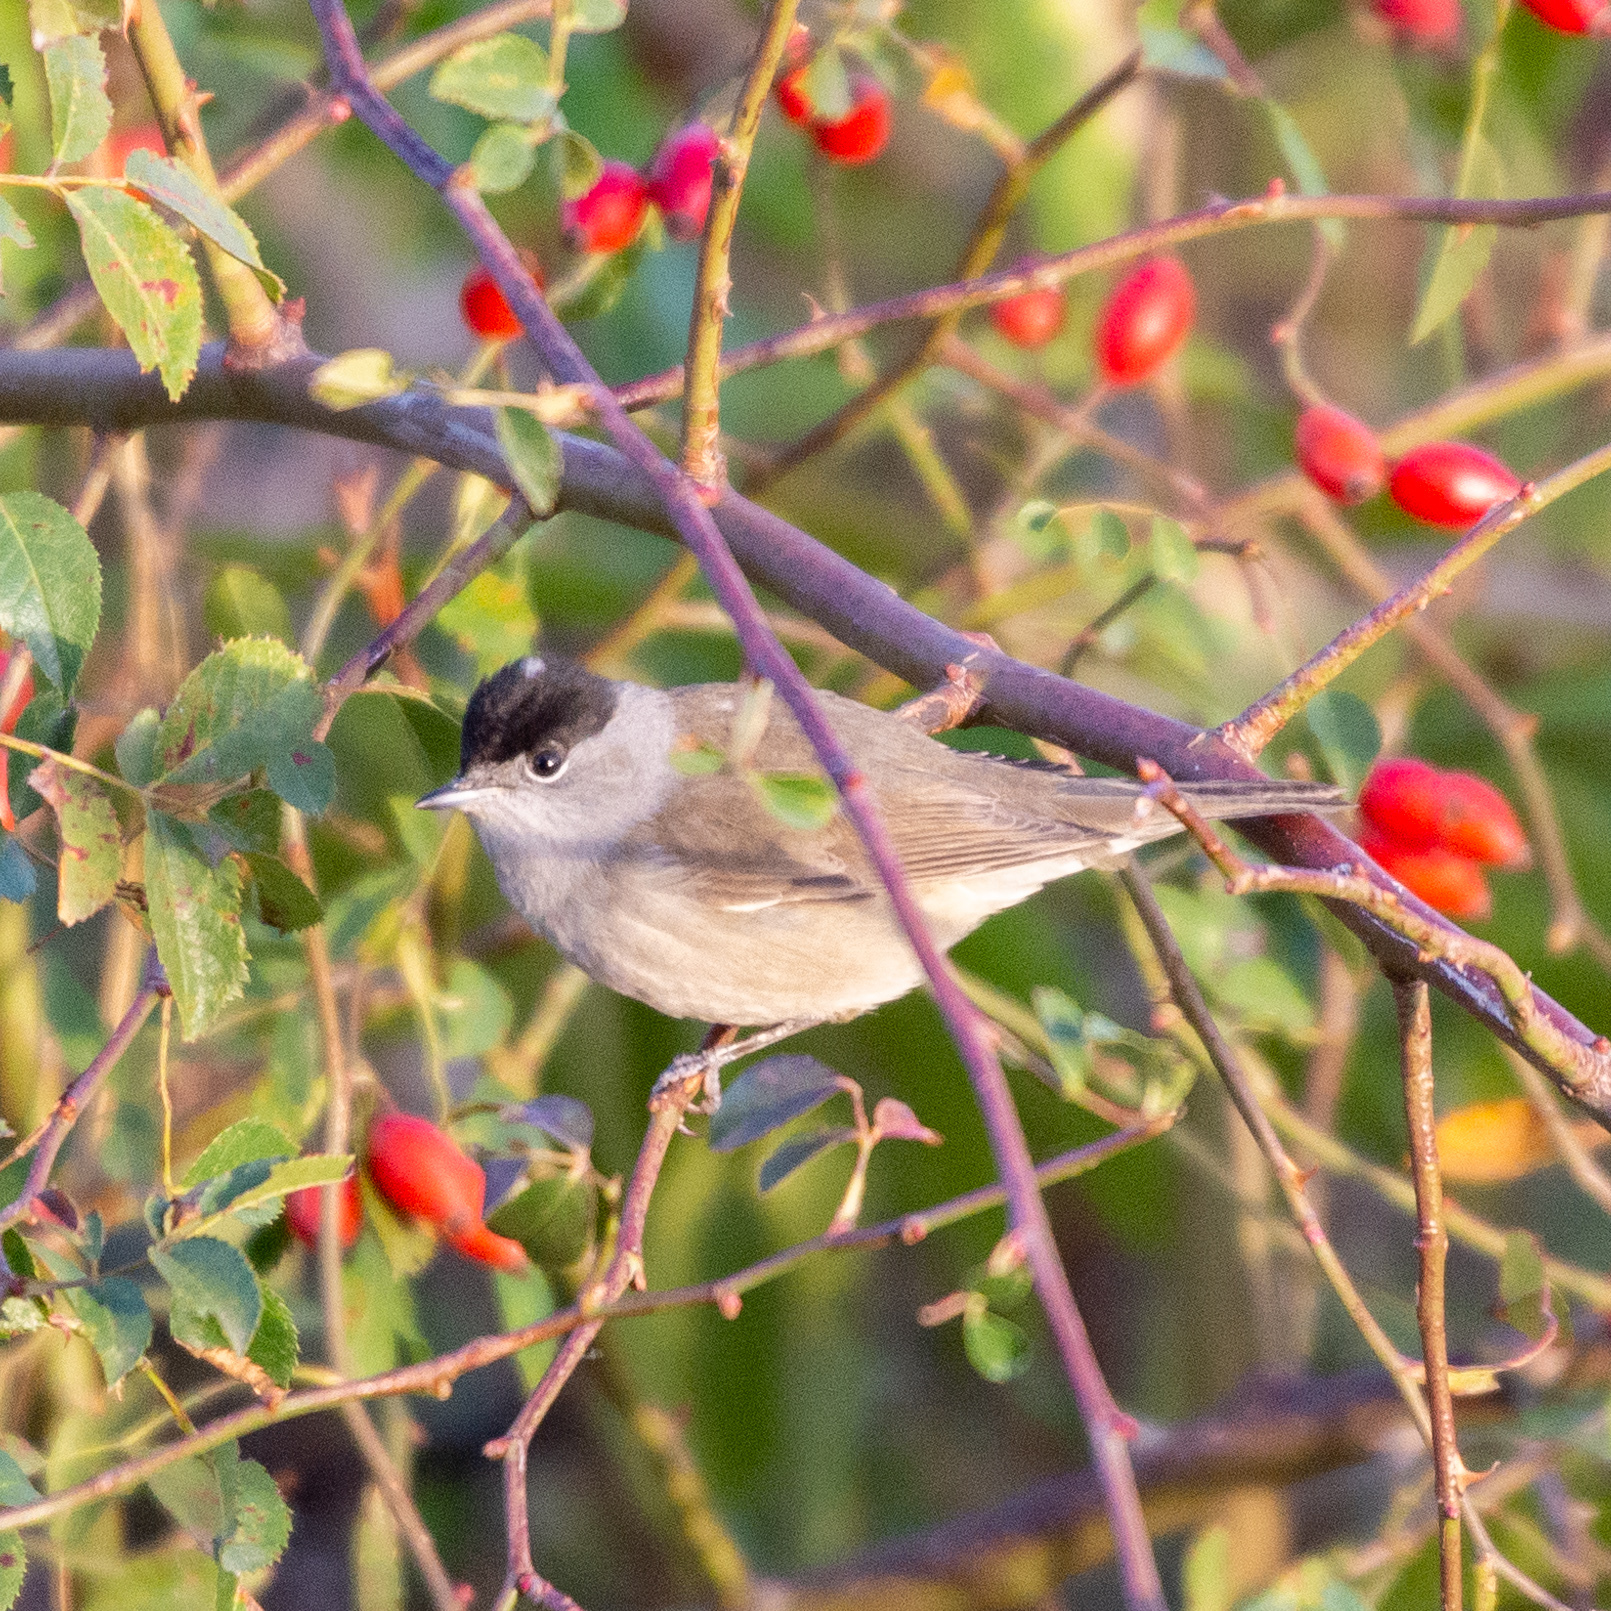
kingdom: Animalia
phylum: Chordata
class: Aves
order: Passeriformes
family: Sylviidae
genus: Sylvia
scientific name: Sylvia atricapilla
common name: Eurasian blackcap
